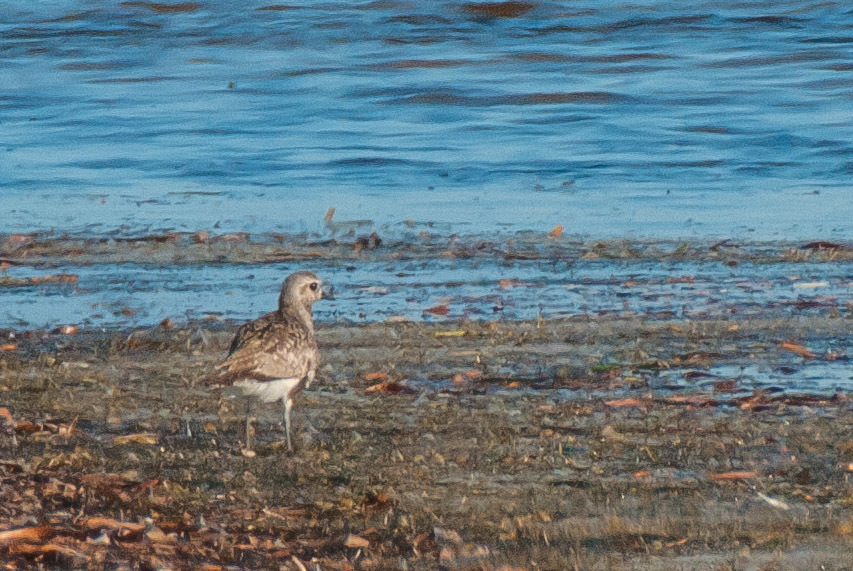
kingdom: Animalia
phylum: Chordata
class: Aves
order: Charadriiformes
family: Charadriidae
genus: Pluvialis
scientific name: Pluvialis squatarola
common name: Grey plover
